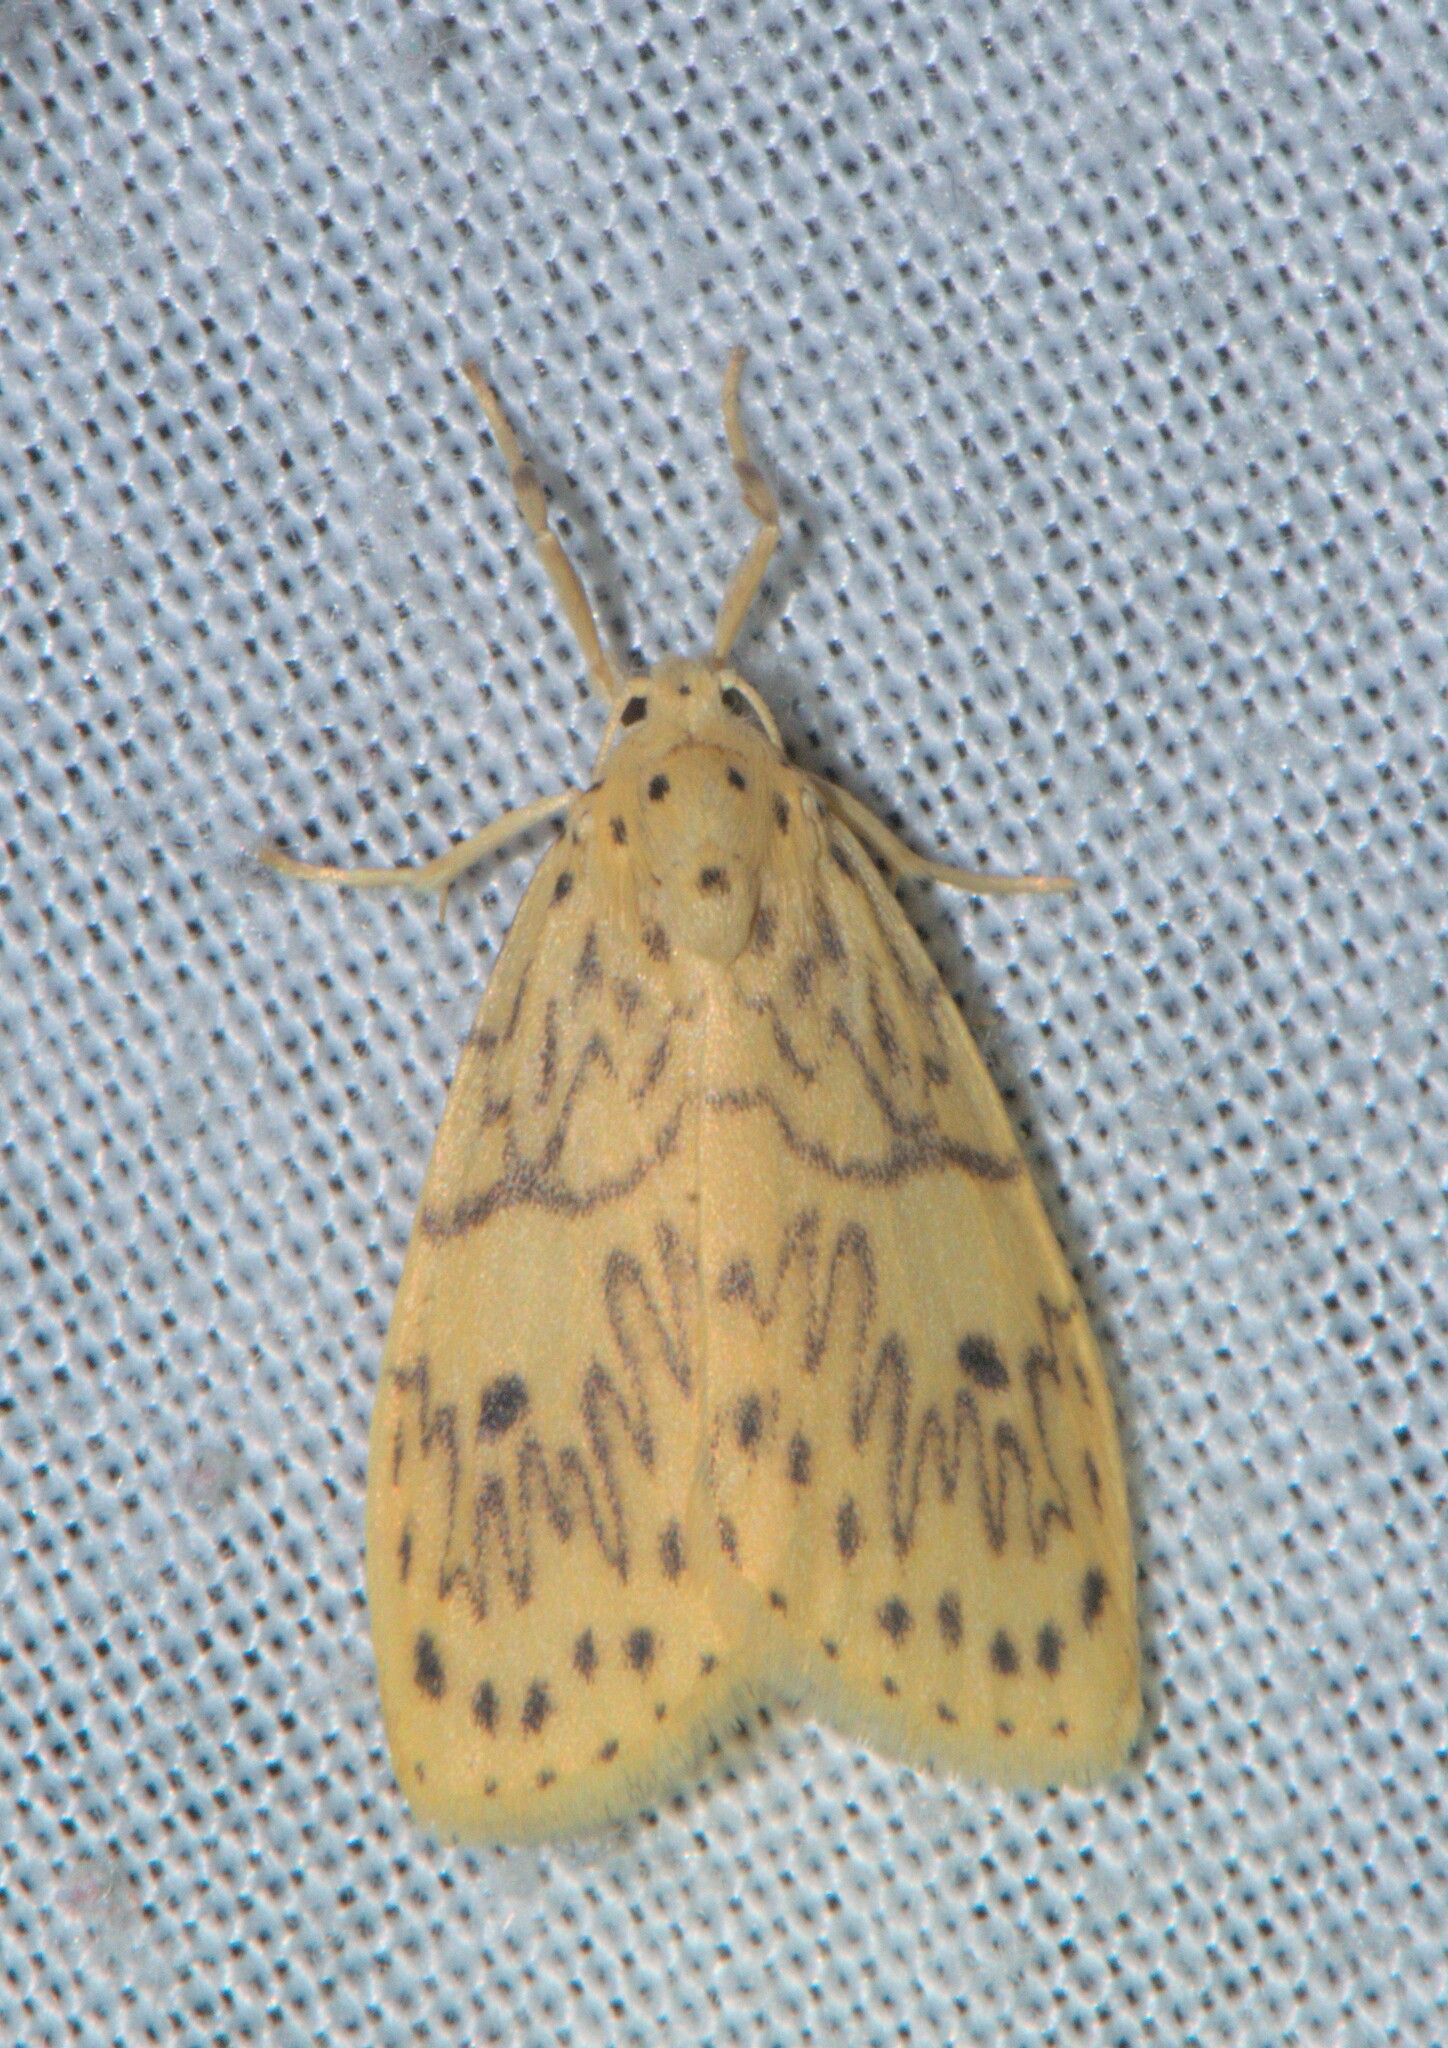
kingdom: Animalia
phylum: Arthropoda
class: Insecta
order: Lepidoptera
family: Erebidae
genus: Miltochrista
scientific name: Miltochrista undulosa
